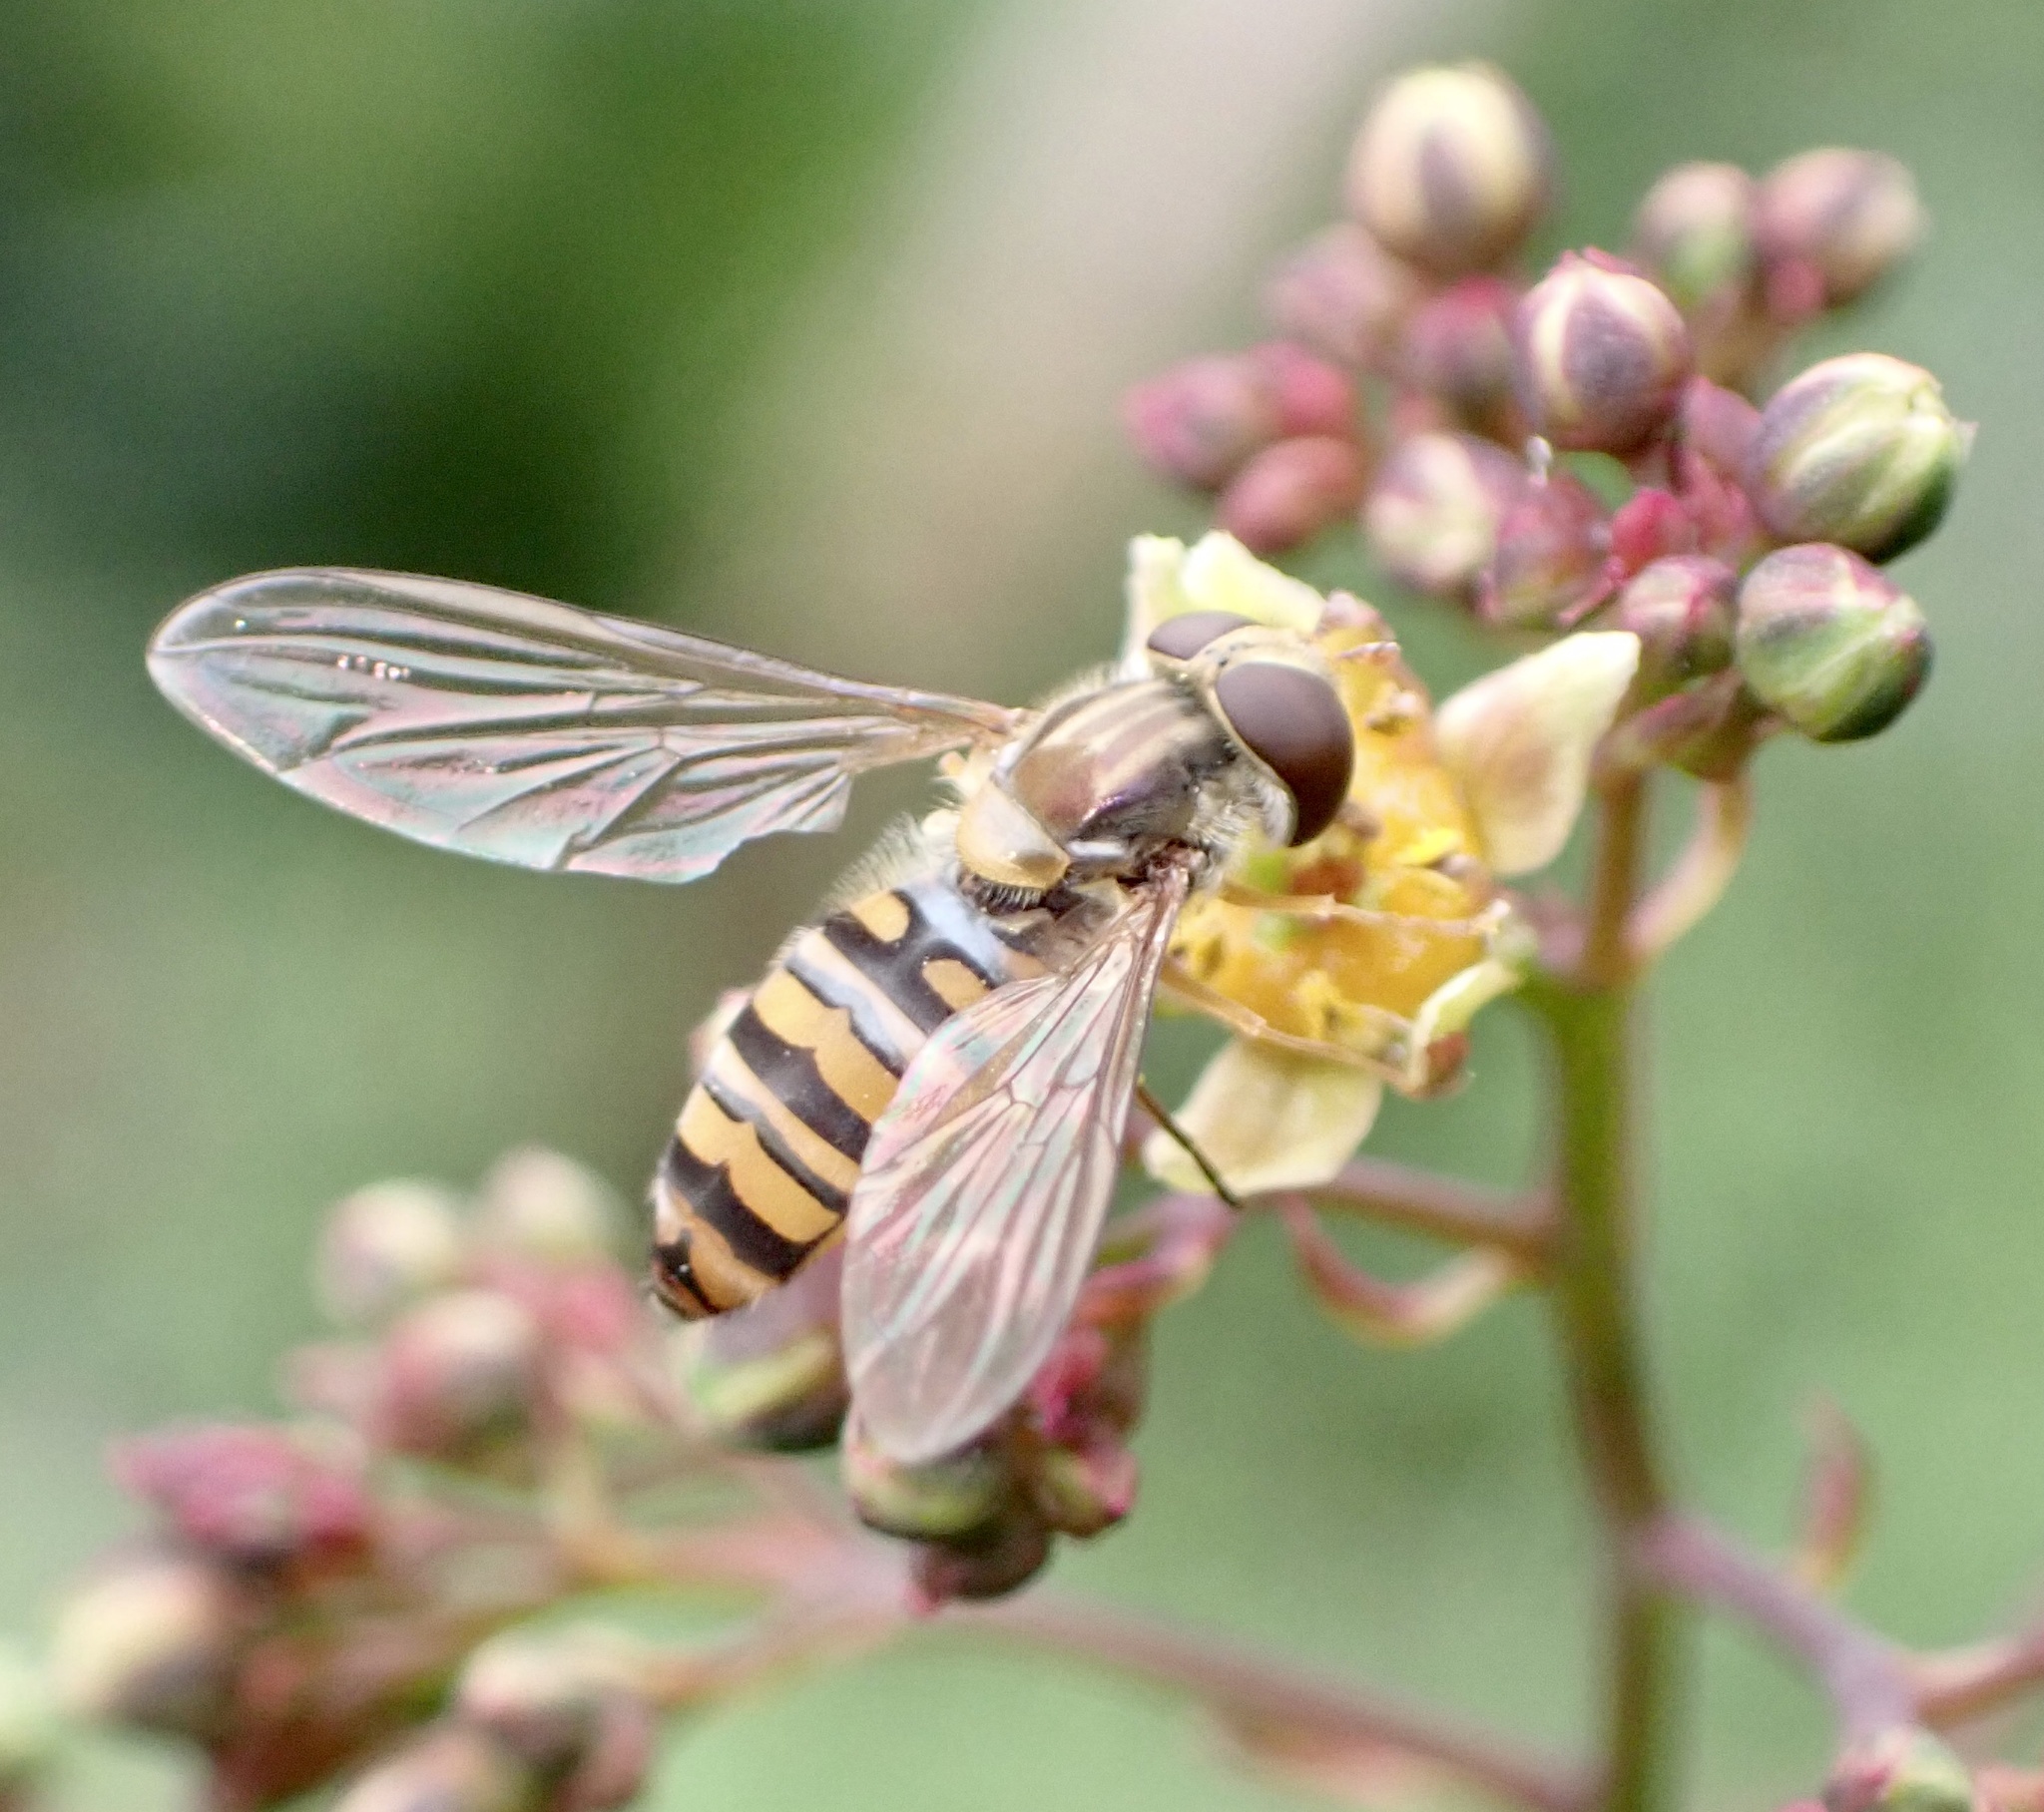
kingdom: Animalia
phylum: Arthropoda
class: Insecta
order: Diptera
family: Syrphidae
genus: Episyrphus
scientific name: Episyrphus balteatus
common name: Marmalade hoverfly
